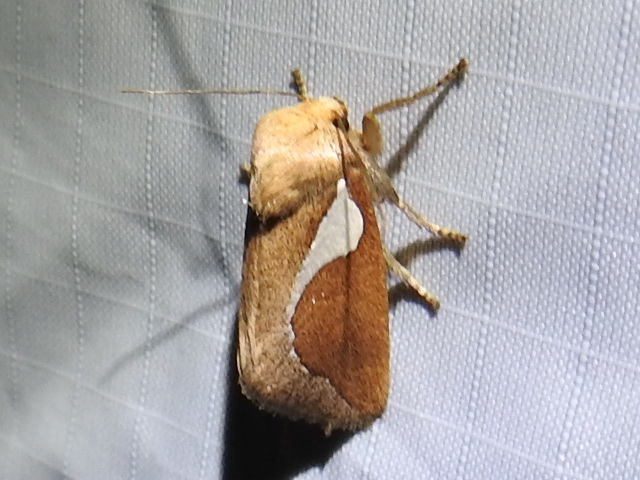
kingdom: Animalia
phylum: Arthropoda
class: Insecta
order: Lepidoptera
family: Limacodidae
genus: Prolimacodes
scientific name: Prolimacodes trigona
